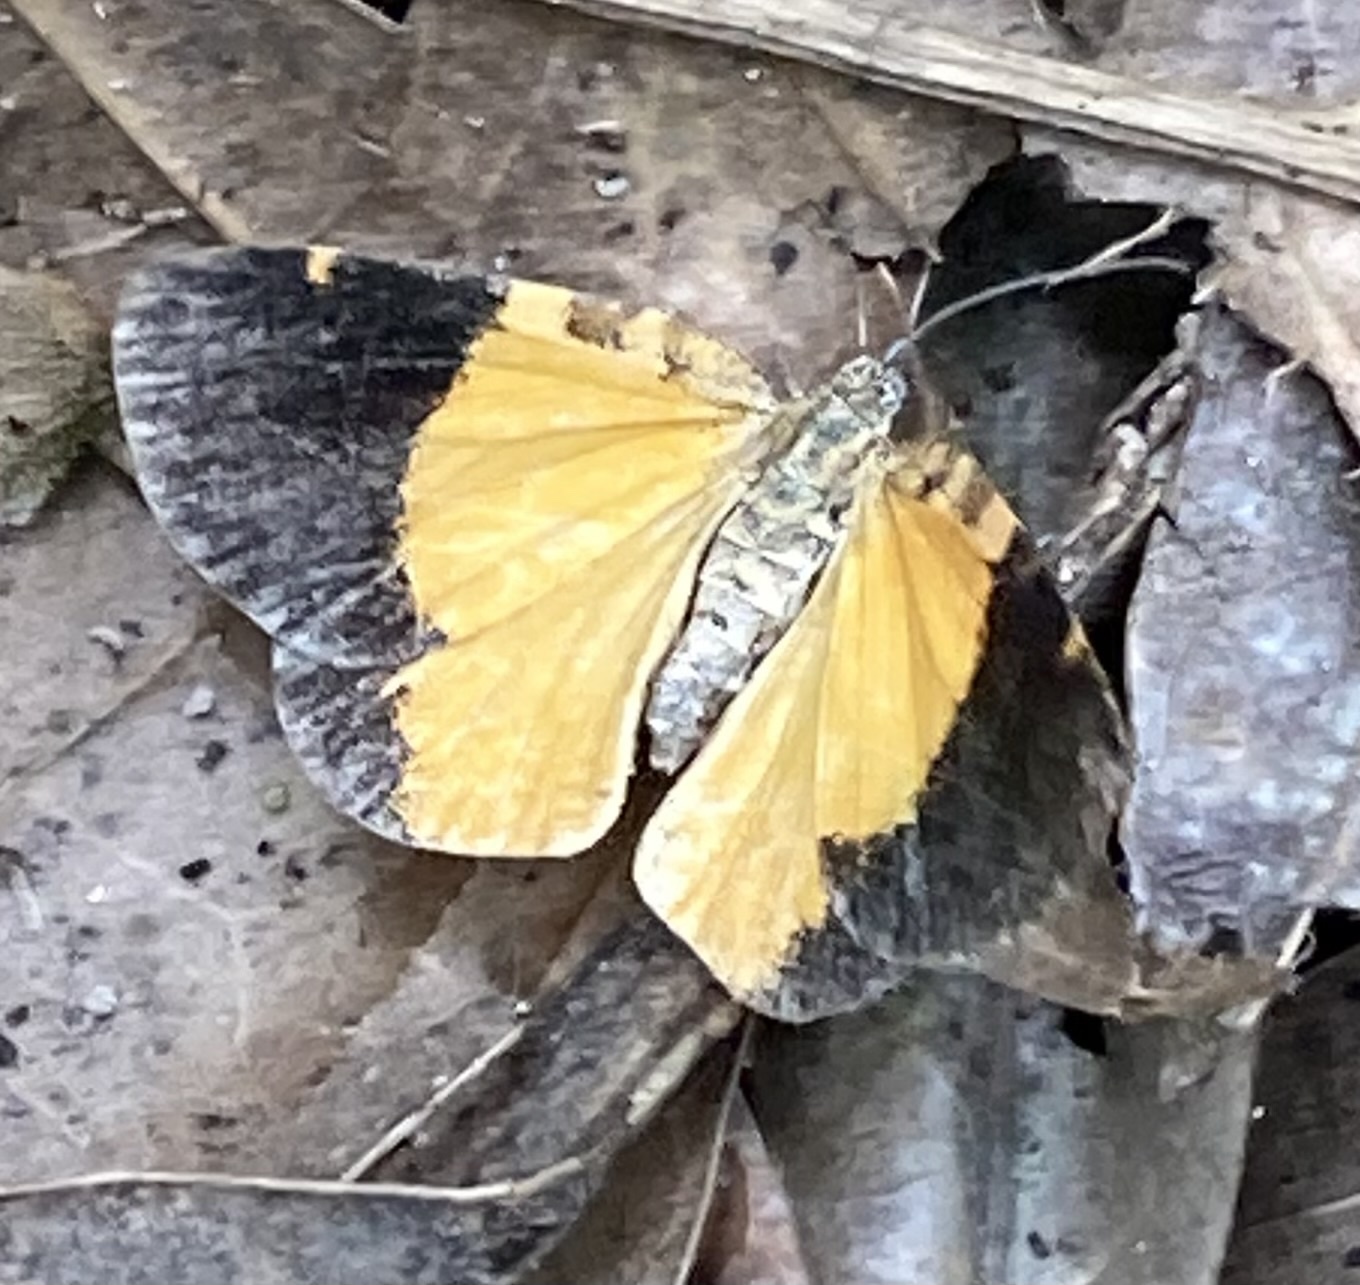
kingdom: Animalia
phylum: Arthropoda
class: Insecta
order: Lepidoptera
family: Geometridae
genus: Heterusia
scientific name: Heterusia partitata
